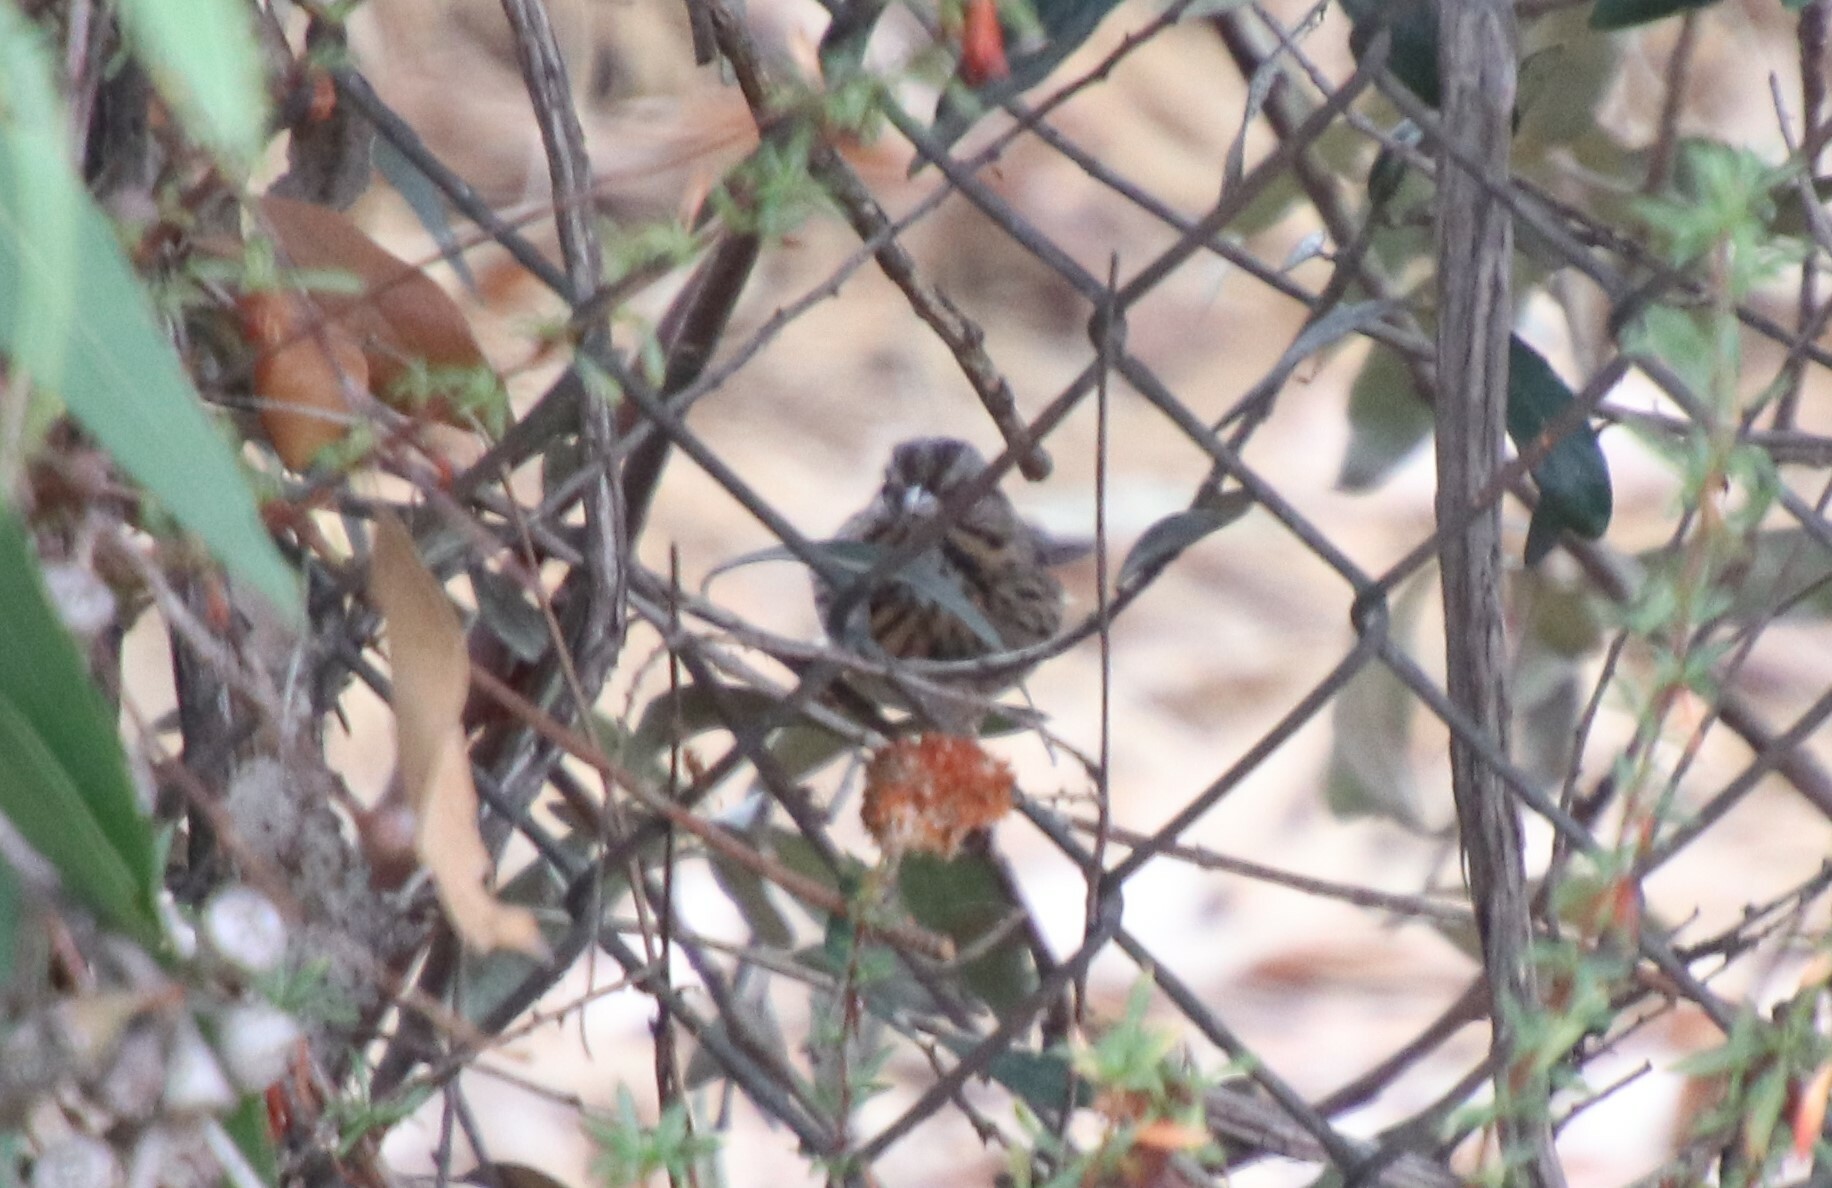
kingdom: Animalia
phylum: Chordata
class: Aves
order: Passeriformes
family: Passerellidae
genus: Melospiza
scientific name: Melospiza melodia
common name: Song sparrow
